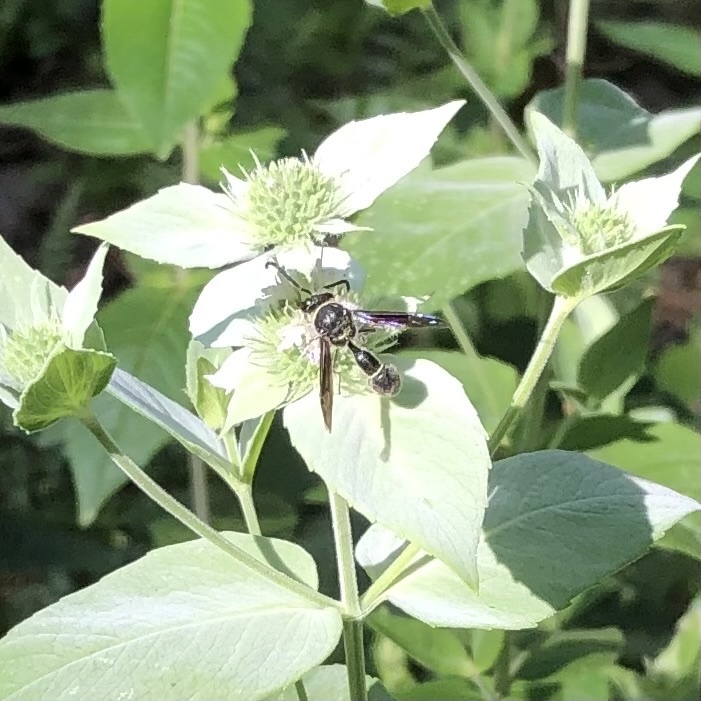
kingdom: Animalia
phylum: Arthropoda
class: Insecta
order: Hymenoptera
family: Vespidae
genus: Eumenes
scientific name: Eumenes fraternus
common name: Fraternal potter wasp
